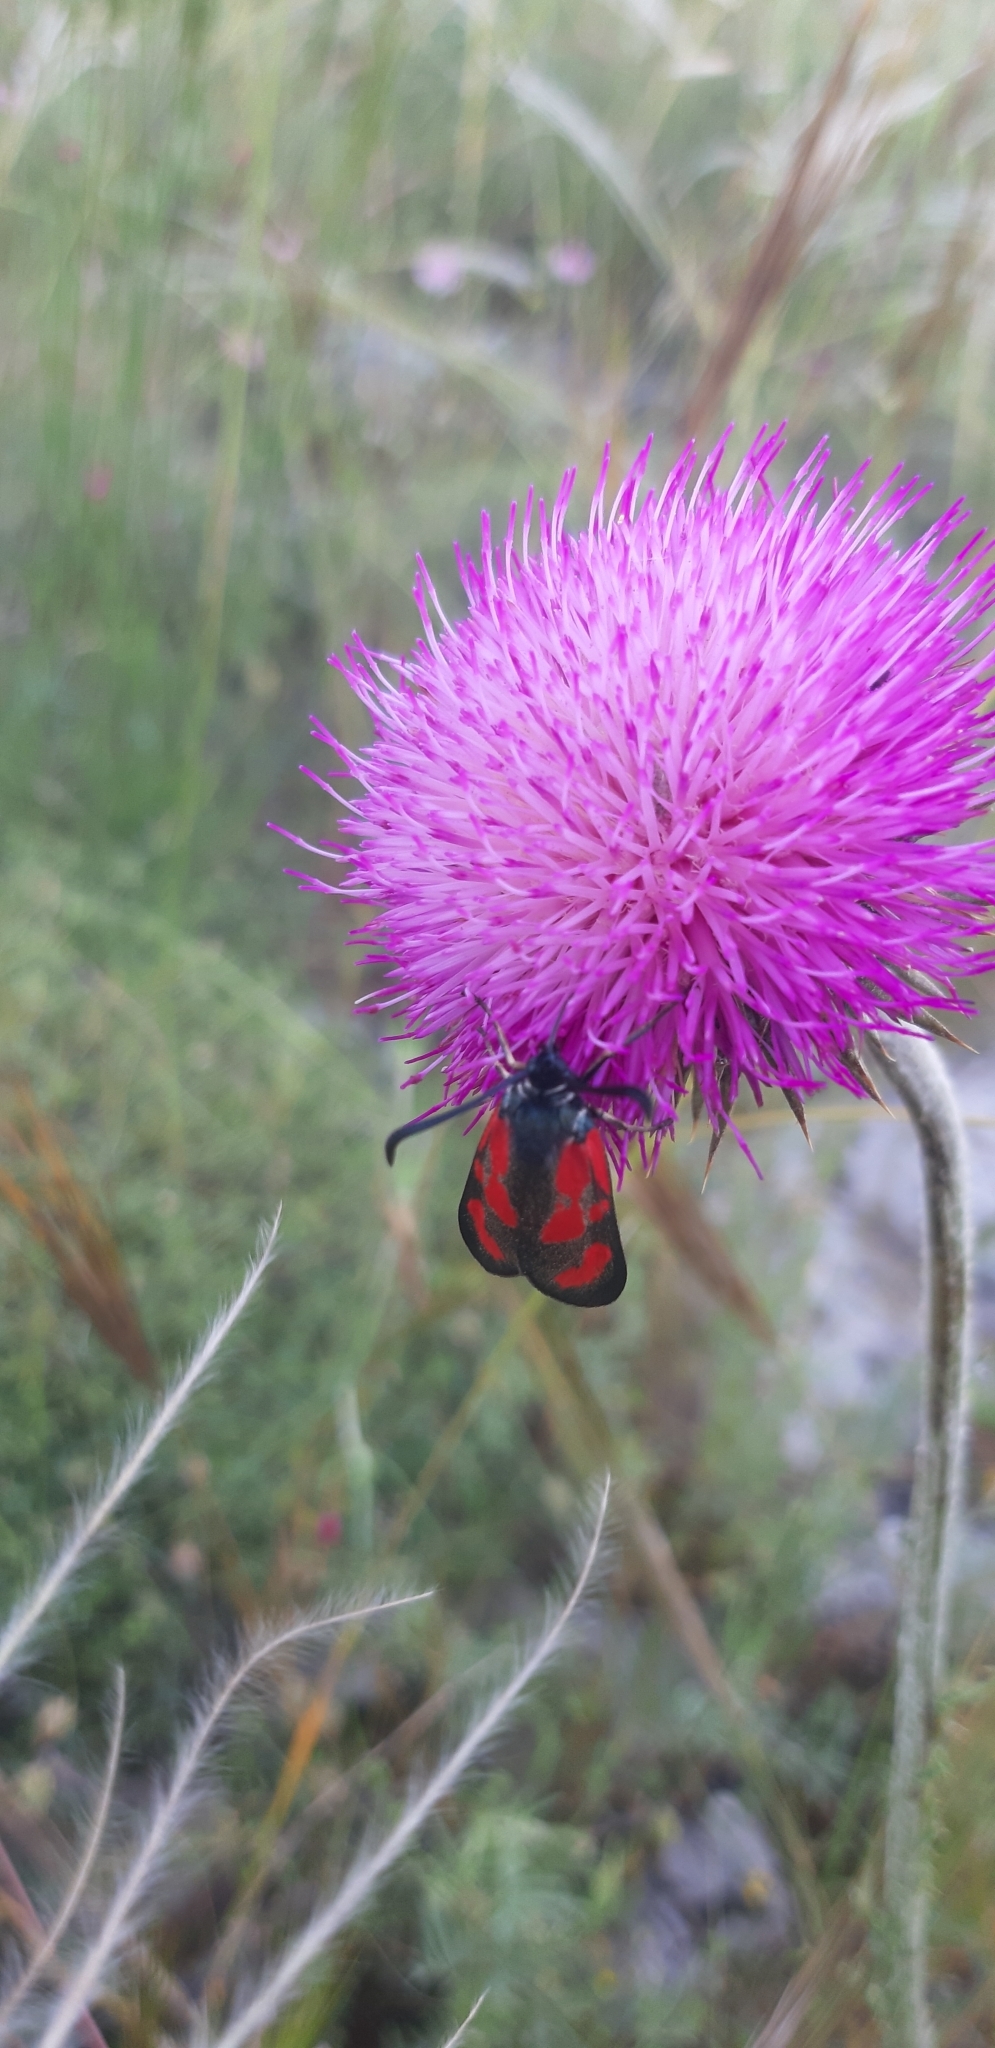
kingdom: Animalia
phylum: Arthropoda
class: Insecta
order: Lepidoptera
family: Zygaenidae
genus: Zygaena
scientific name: Zygaena loti
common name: Slender scotch burnet
